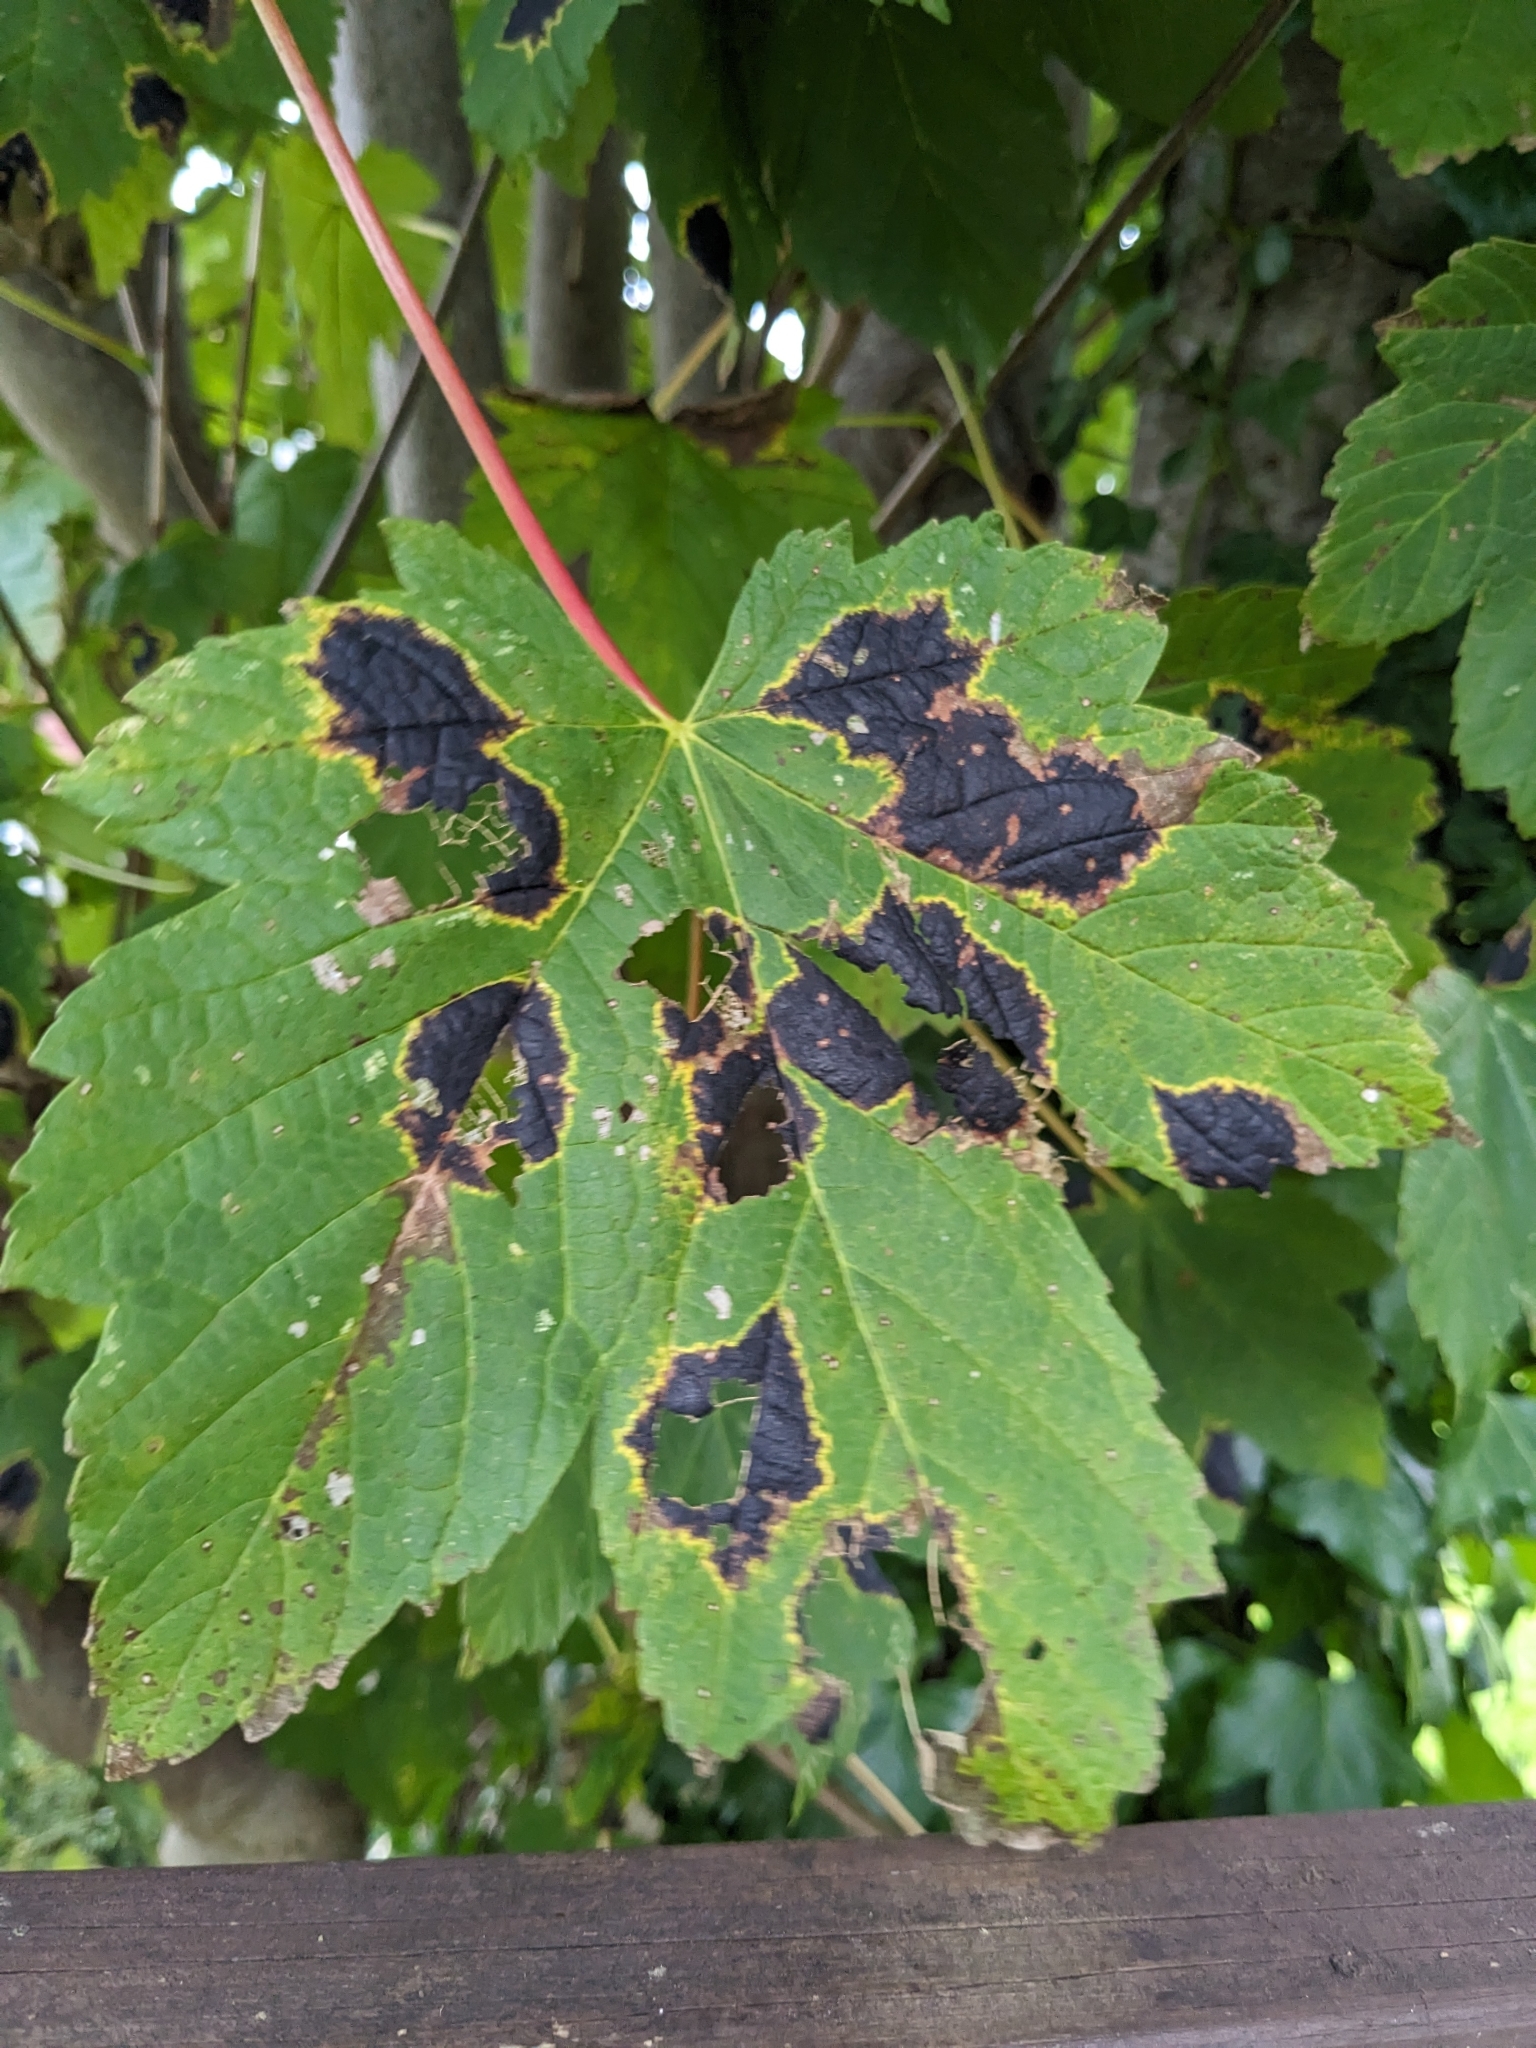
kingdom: Fungi
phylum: Ascomycota
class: Leotiomycetes
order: Rhytismatales
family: Rhytismataceae
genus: Rhytisma
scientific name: Rhytisma acerinum
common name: European tar spot
